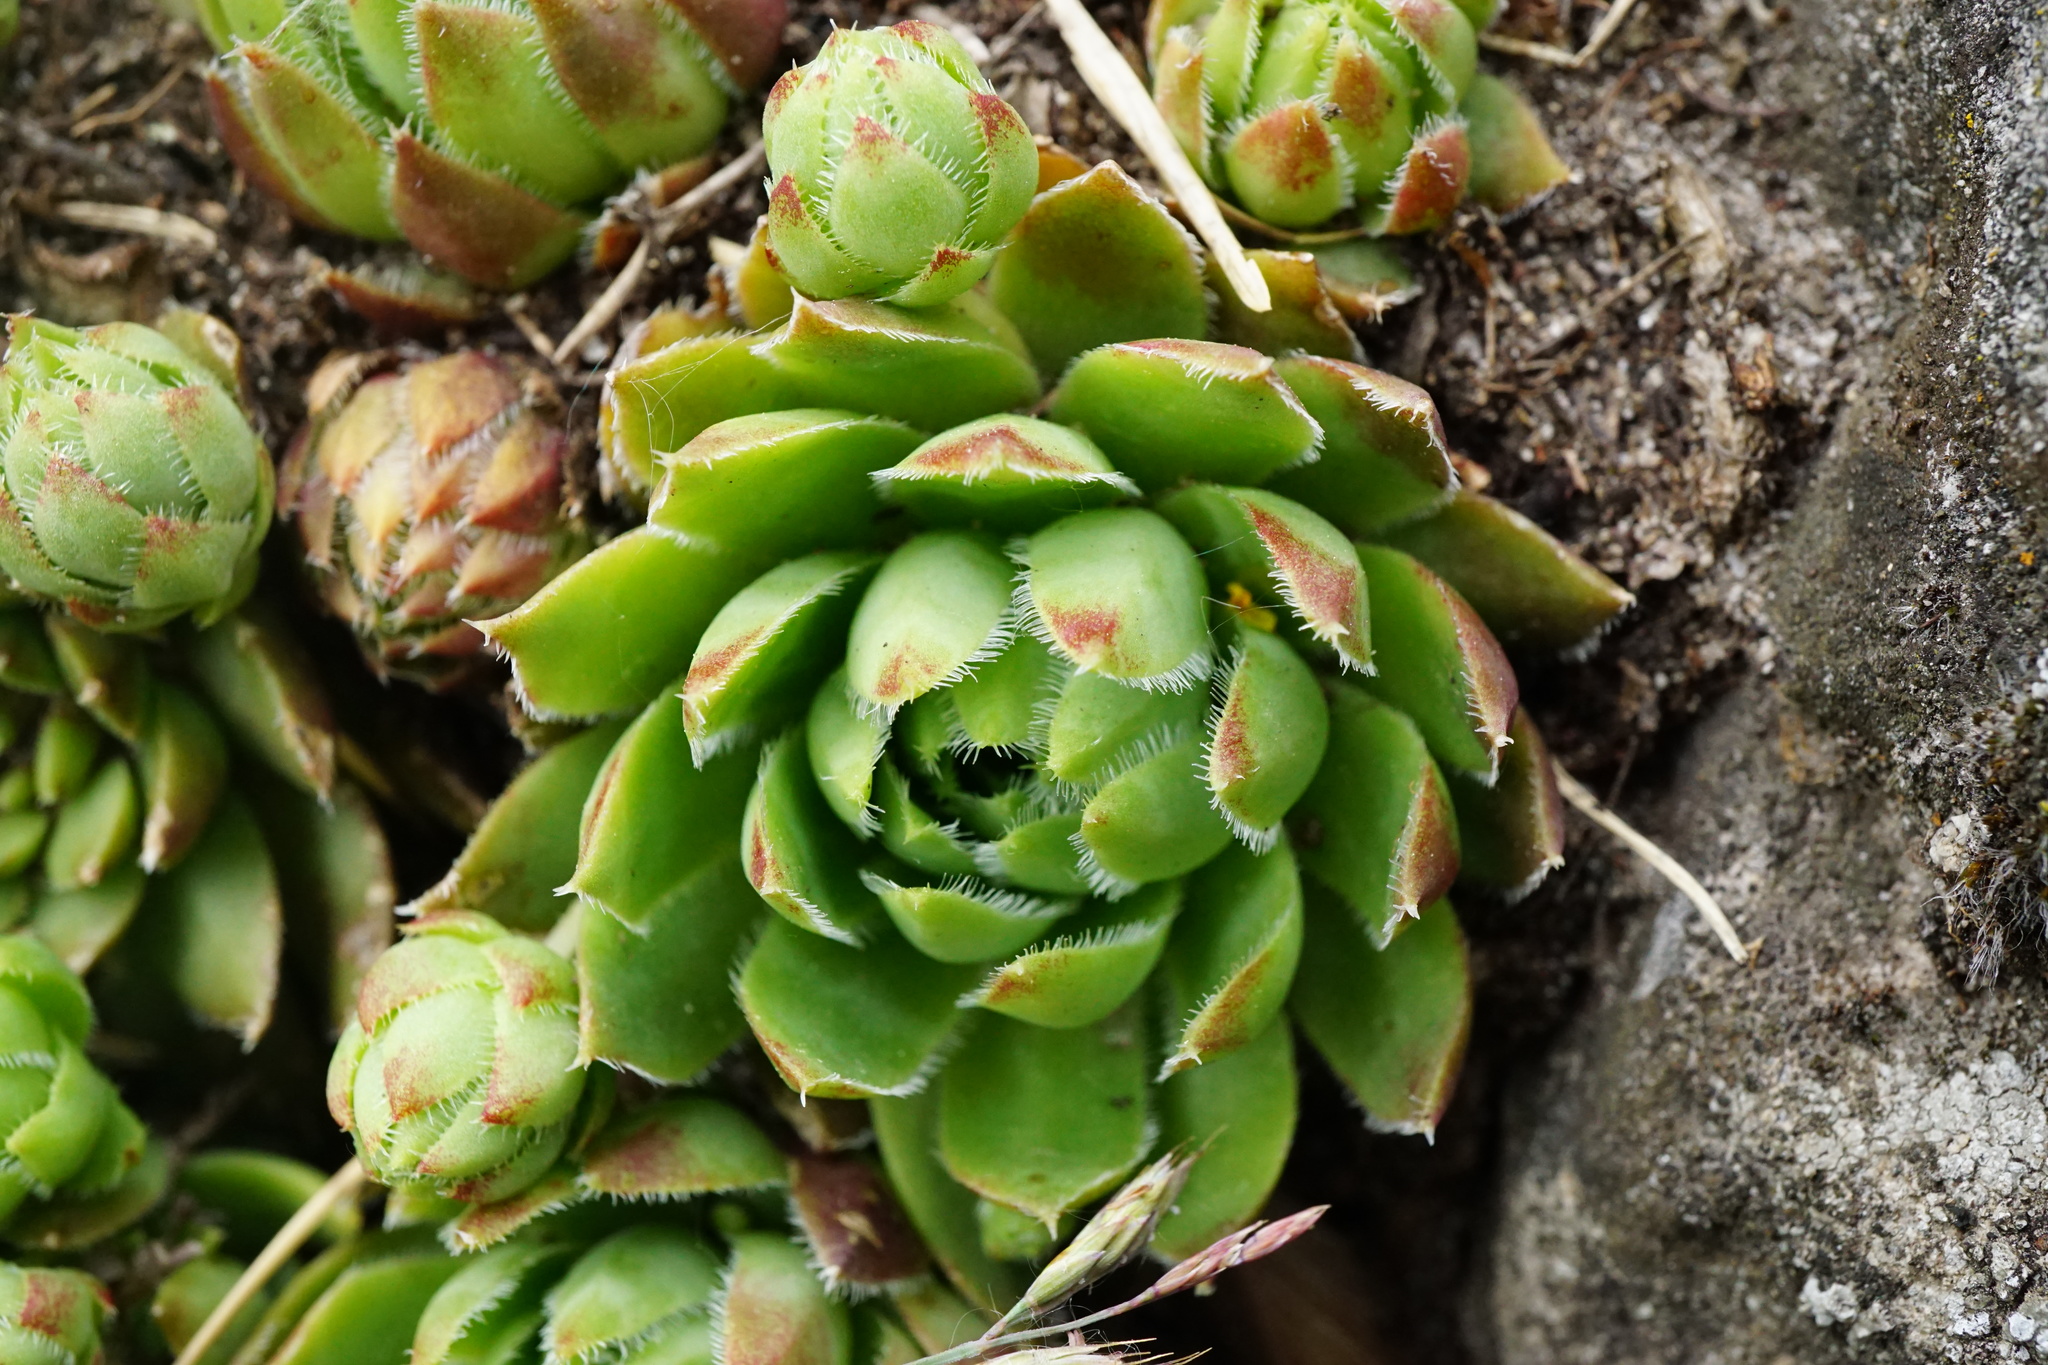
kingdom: Plantae
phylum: Tracheophyta
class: Magnoliopsida
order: Saxifragales
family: Crassulaceae
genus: Sempervivum
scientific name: Sempervivum globiferum
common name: Rolling hen-and-chicks
